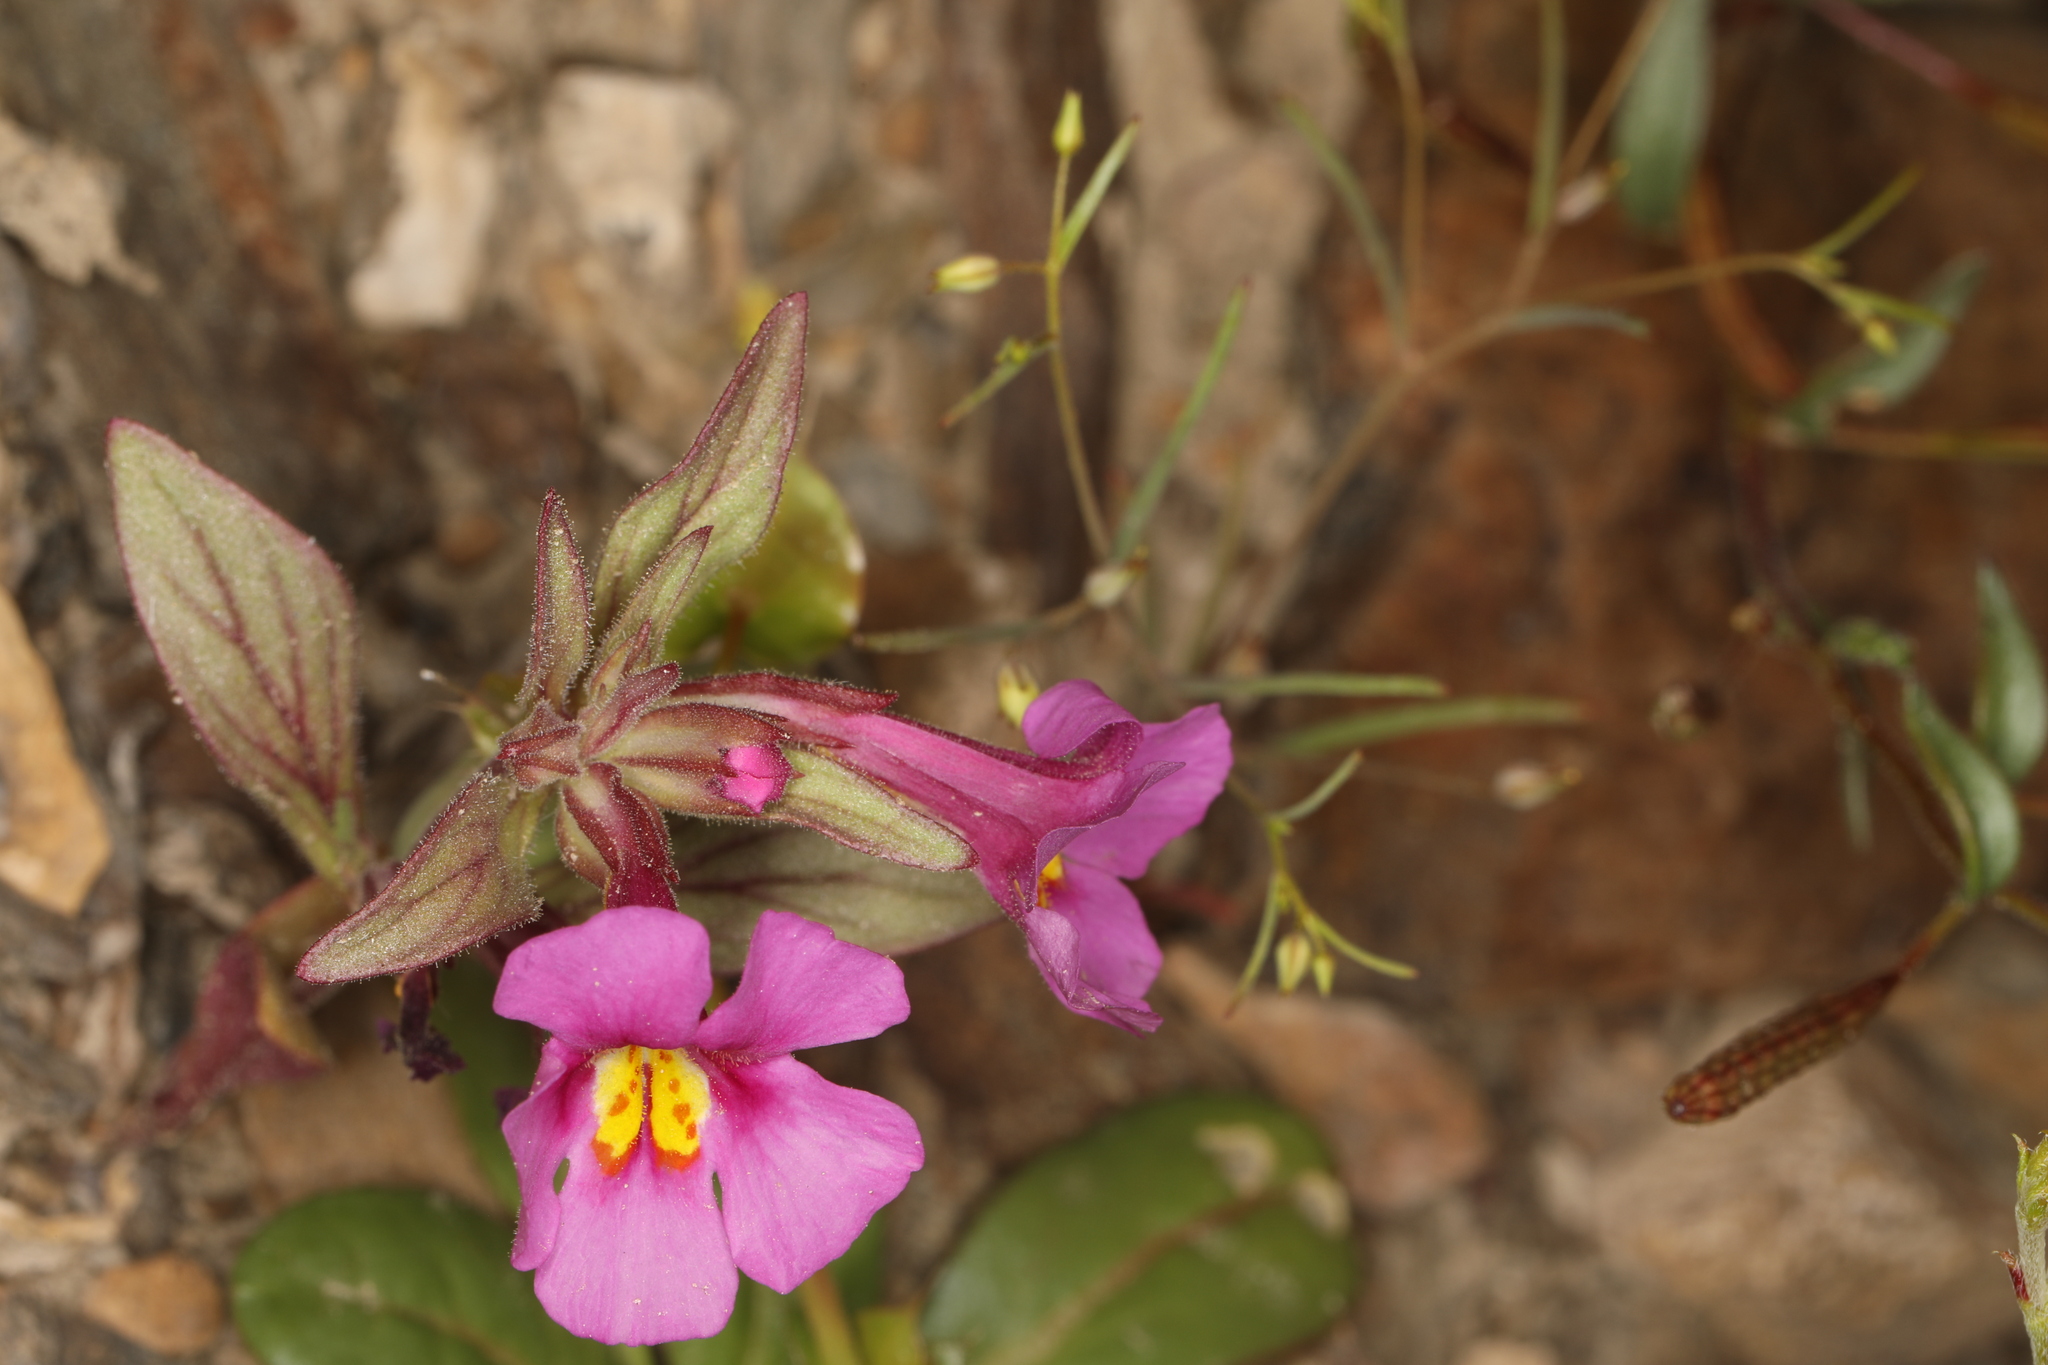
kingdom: Plantae
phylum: Tracheophyta
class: Magnoliopsida
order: Lamiales
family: Phrymaceae
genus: Diplacus
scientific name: Diplacus parryi
